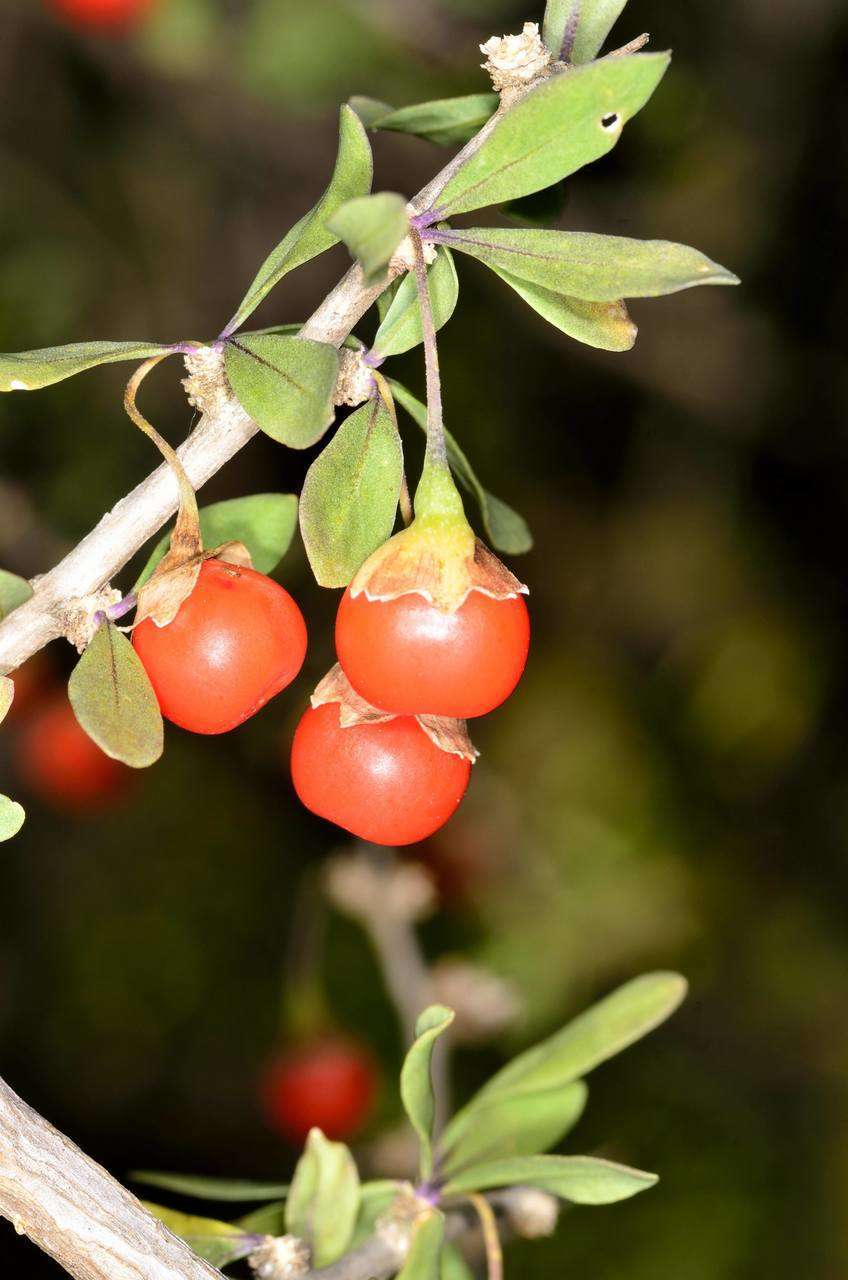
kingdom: Plantae
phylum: Tracheophyta
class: Magnoliopsida
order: Solanales
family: Solanaceae
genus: Lycium
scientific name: Lycium ferocissimum
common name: African boxthorn
